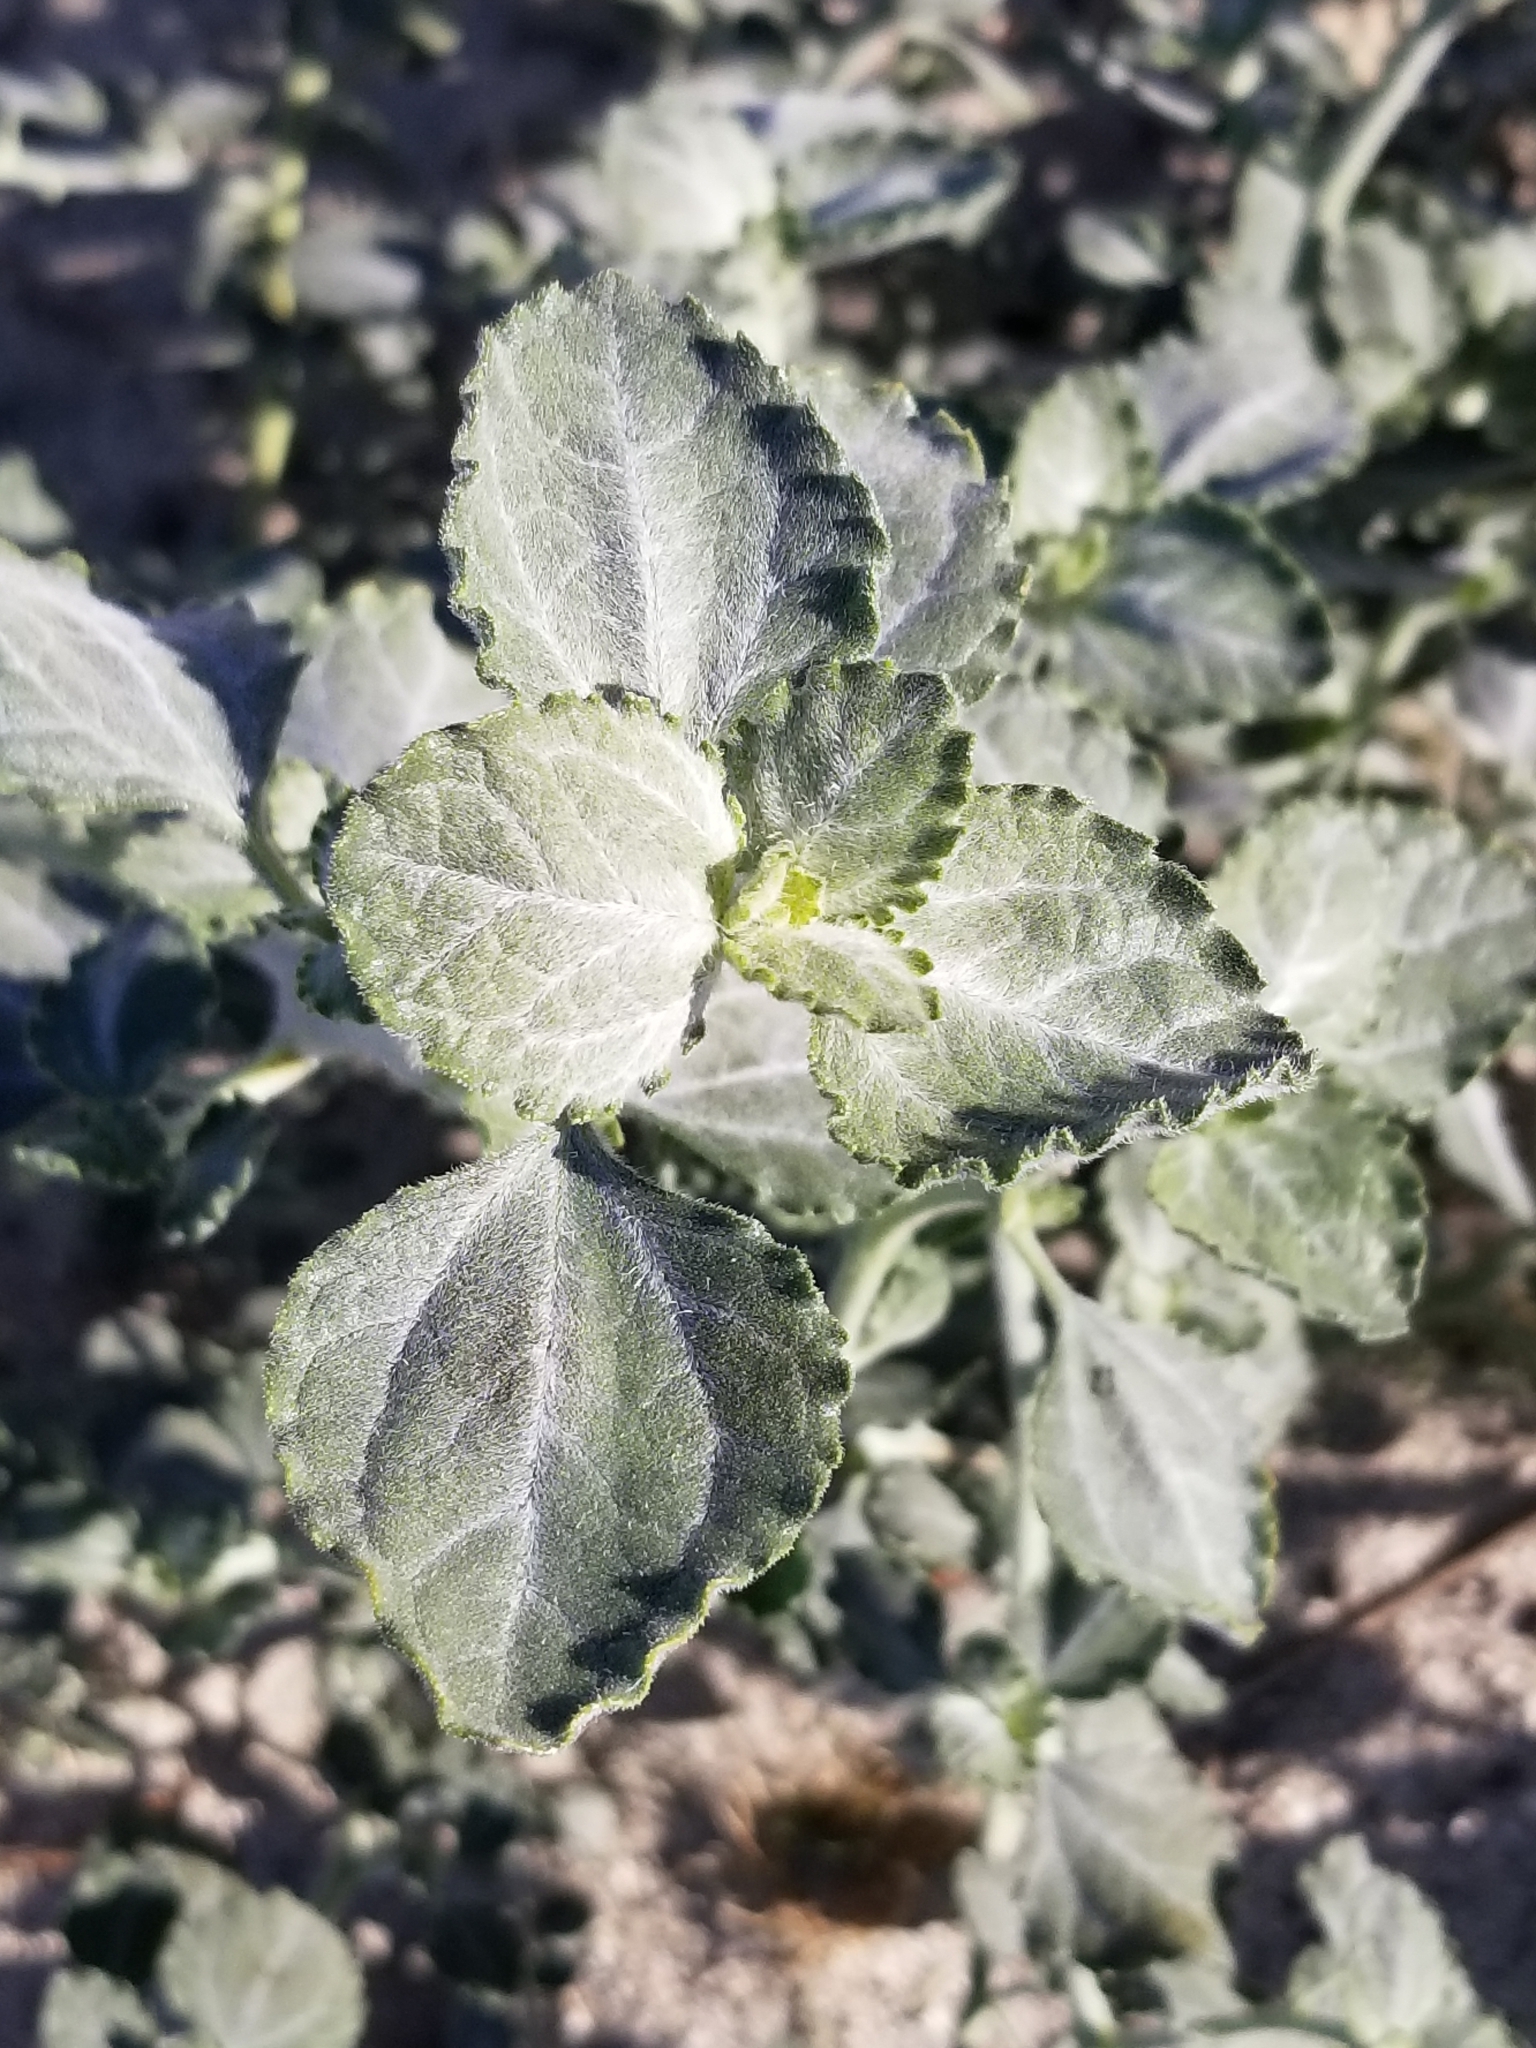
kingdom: Plantae
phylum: Tracheophyta
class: Magnoliopsida
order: Asterales
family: Asteraceae
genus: Dicoria
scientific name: Dicoria canescens
